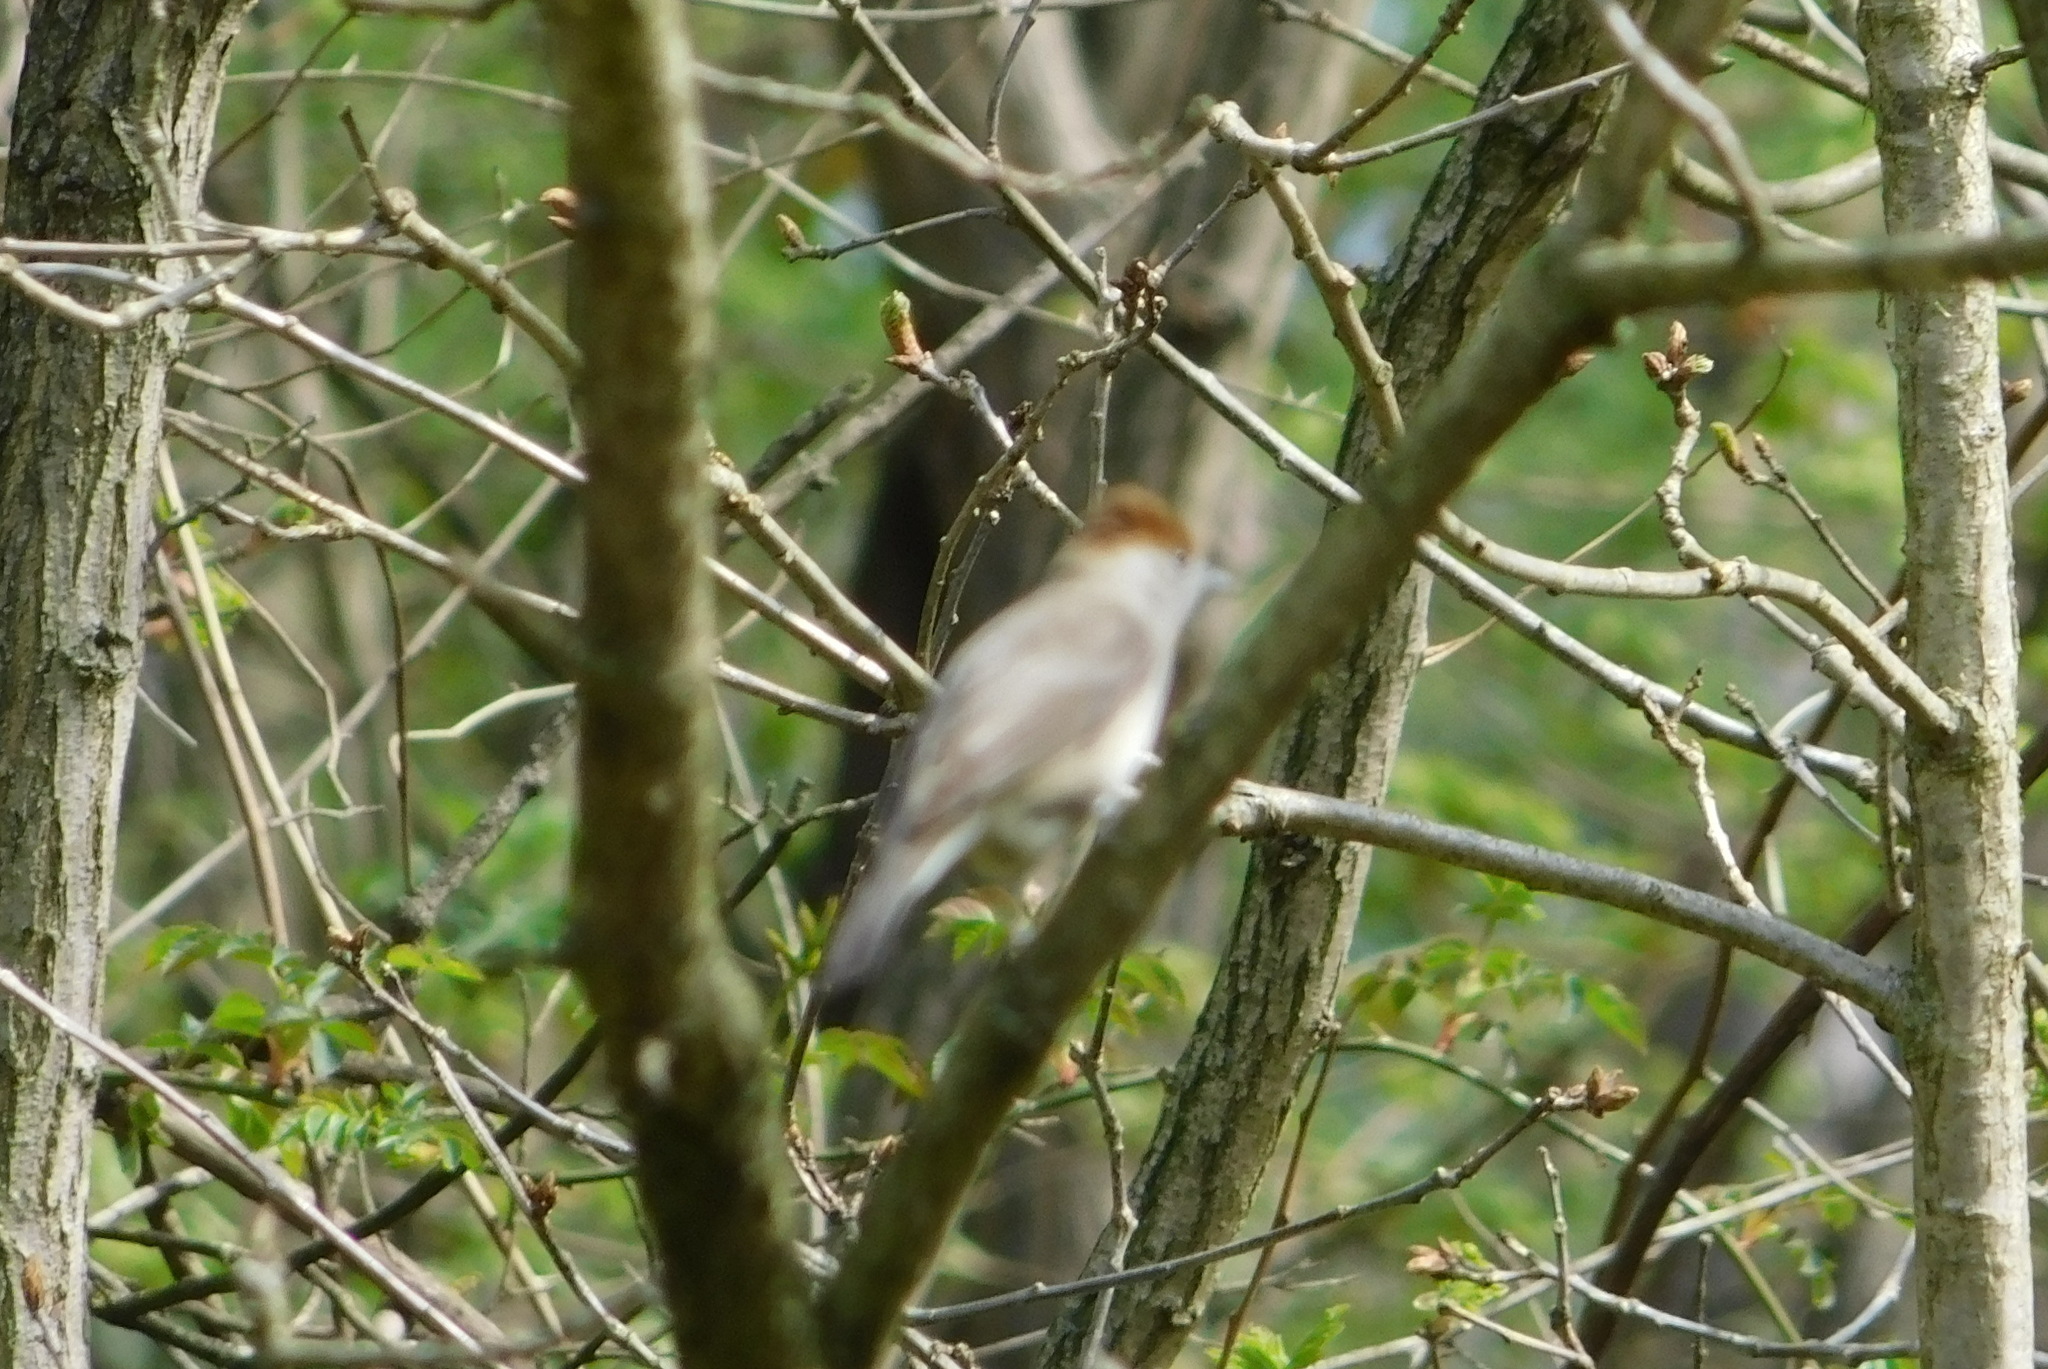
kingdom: Animalia
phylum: Chordata
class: Aves
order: Passeriformes
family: Sylviidae
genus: Sylvia
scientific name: Sylvia atricapilla
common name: Eurasian blackcap
